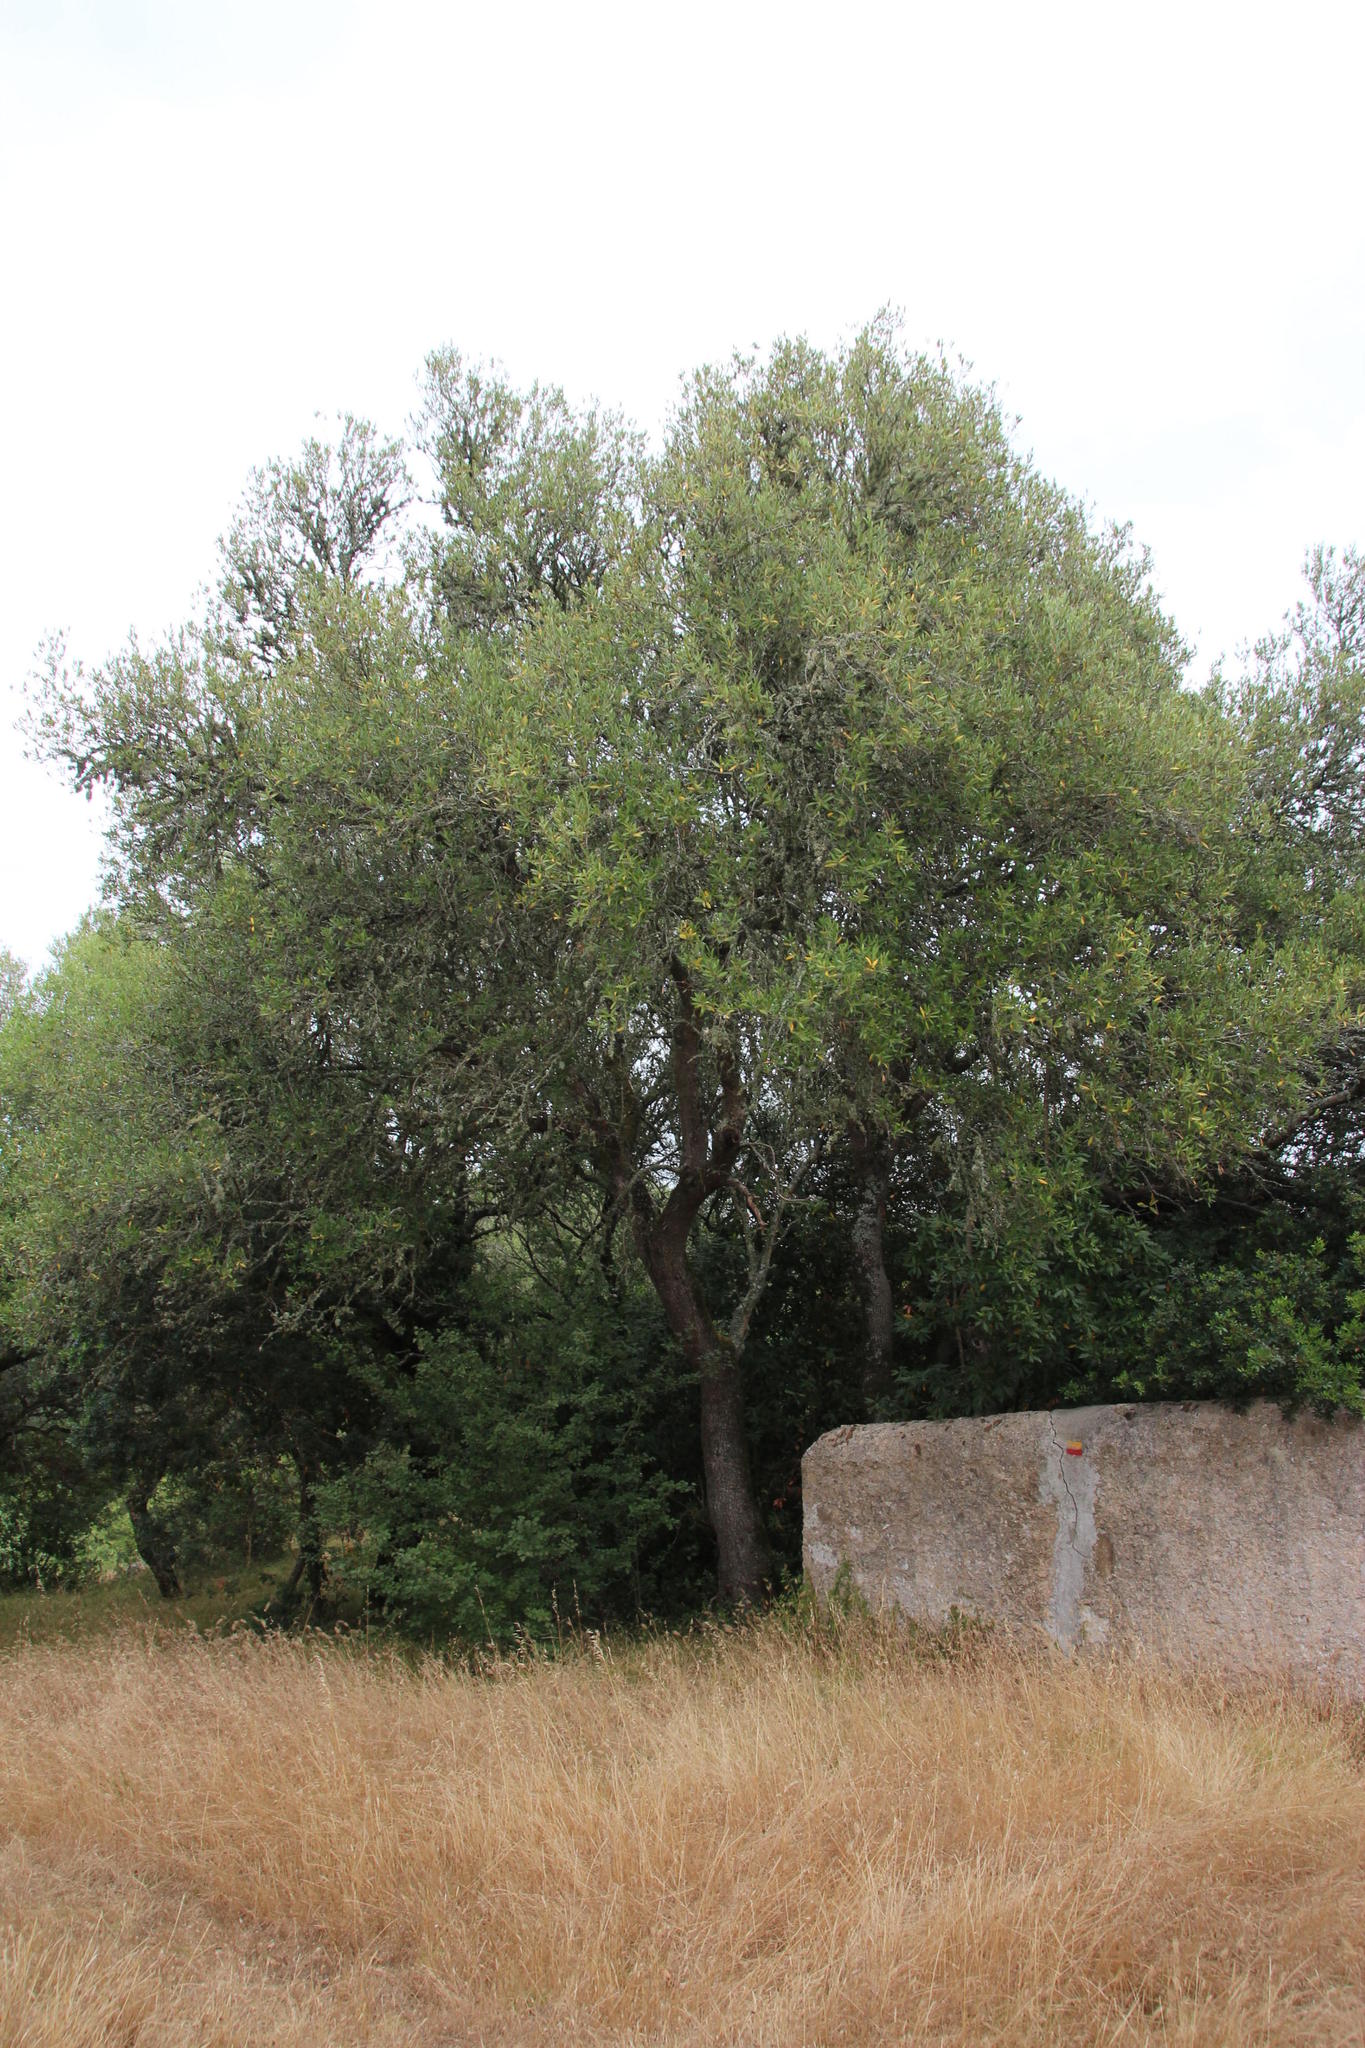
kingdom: Plantae
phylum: Tracheophyta
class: Magnoliopsida
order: Lamiales
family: Oleaceae
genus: Olea
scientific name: Olea europaea
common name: Olive
